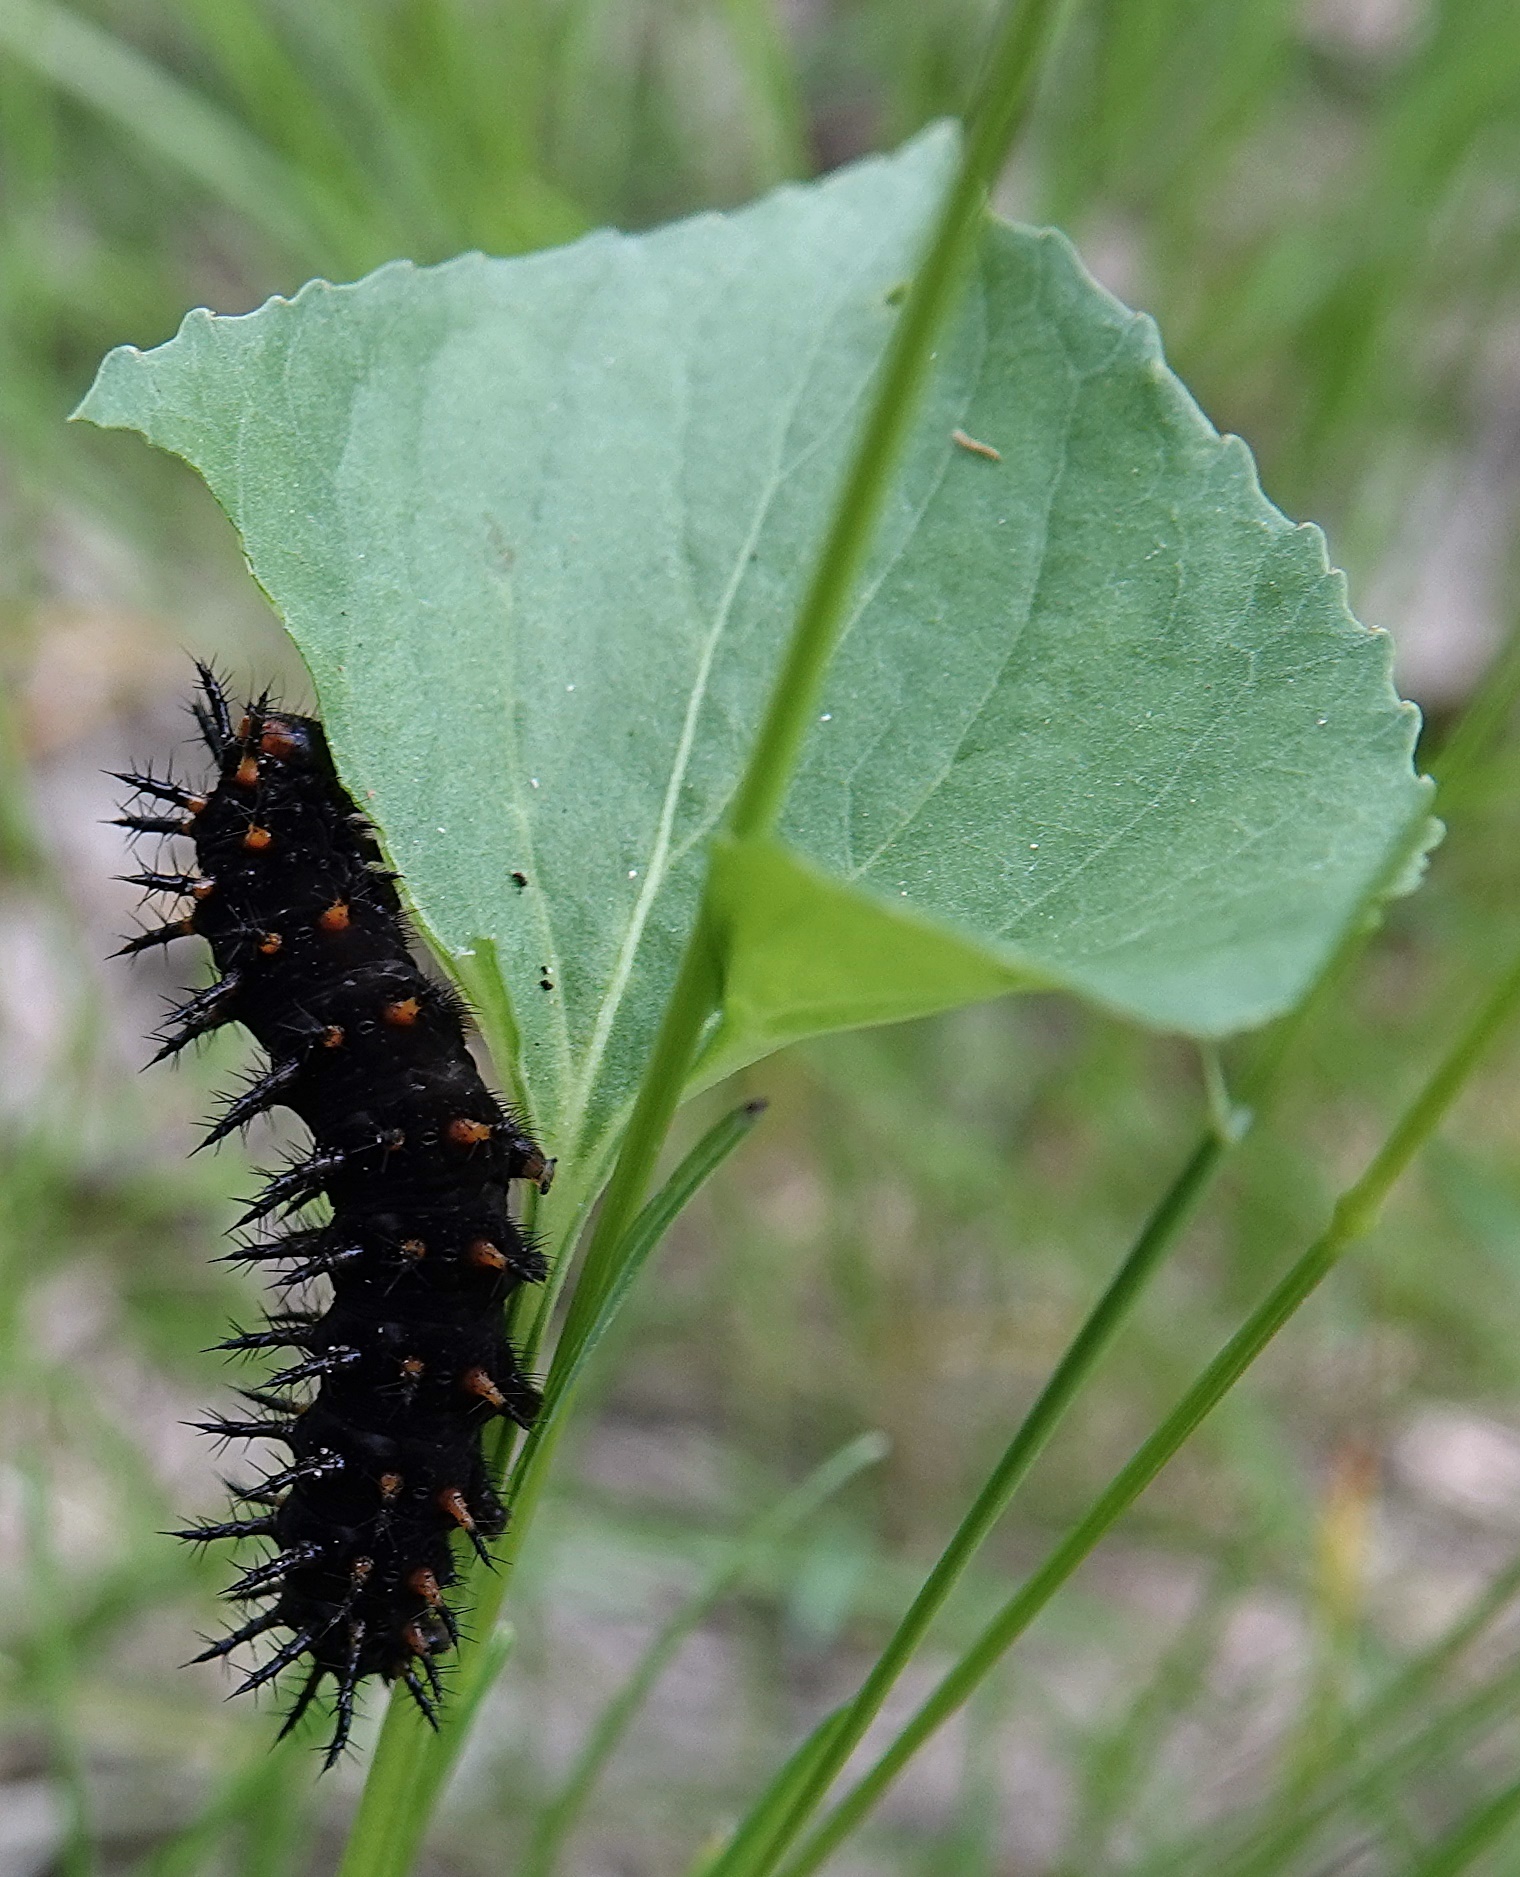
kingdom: Animalia
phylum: Arthropoda
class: Insecta
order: Lepidoptera
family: Nymphalidae
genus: Speyeria
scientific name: Speyeria cybele
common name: Great spangled fritillary
